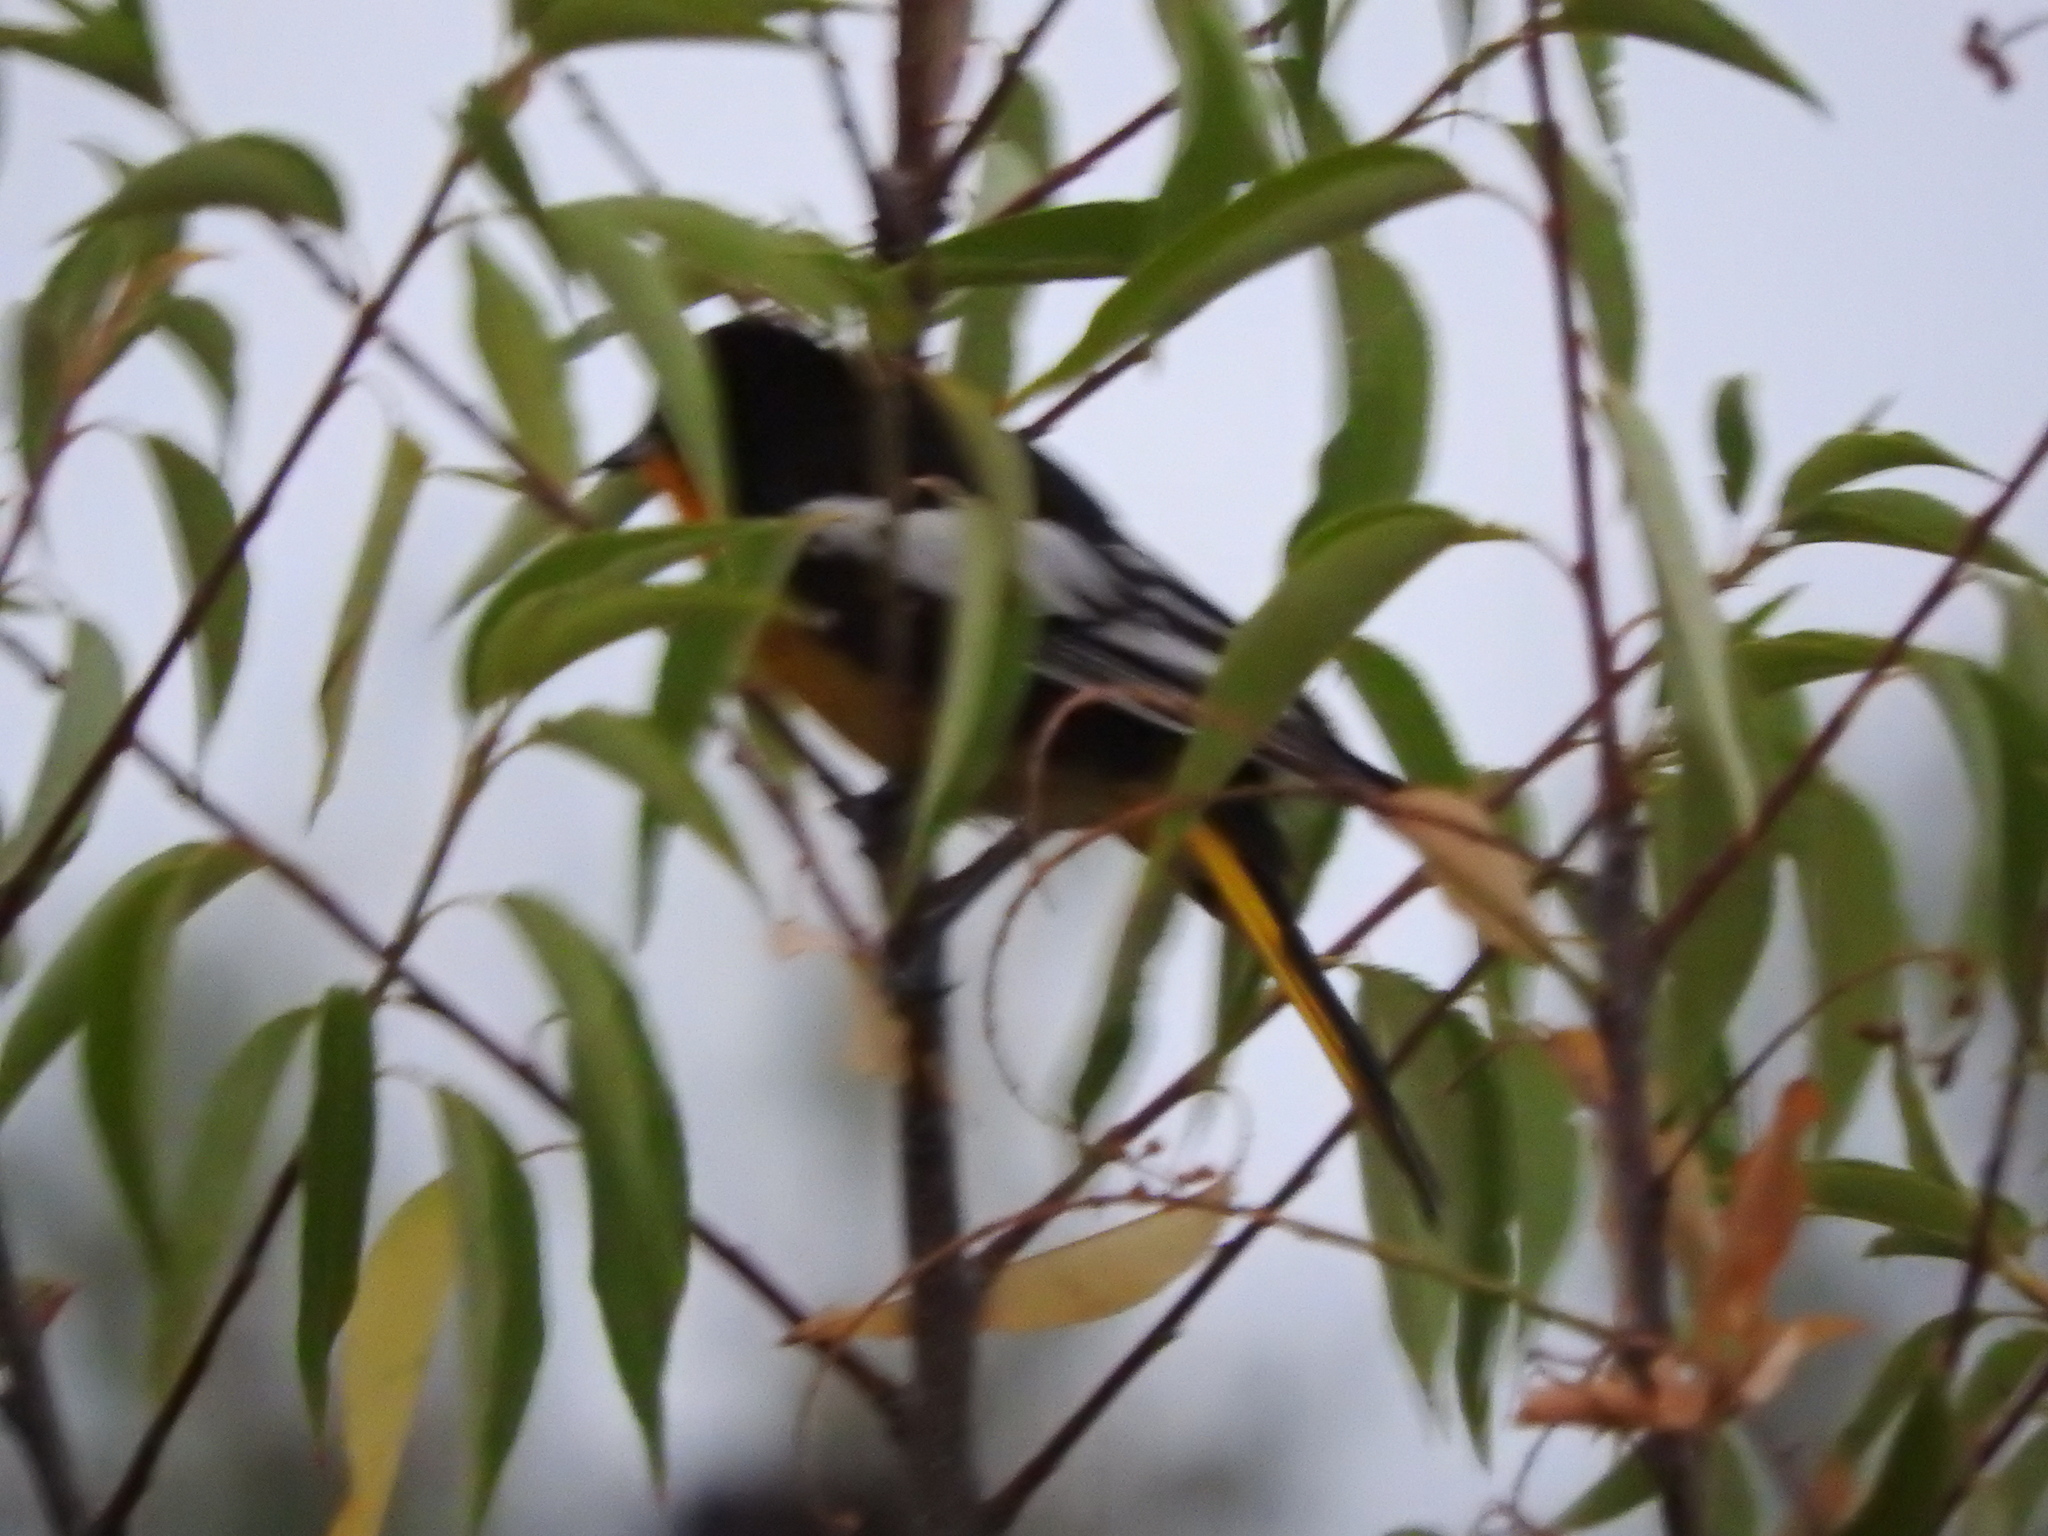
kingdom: Animalia
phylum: Chordata
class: Aves
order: Passeriformes
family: Icteridae
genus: Icterus
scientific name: Icterus abeillei
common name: Black-backed oriole
